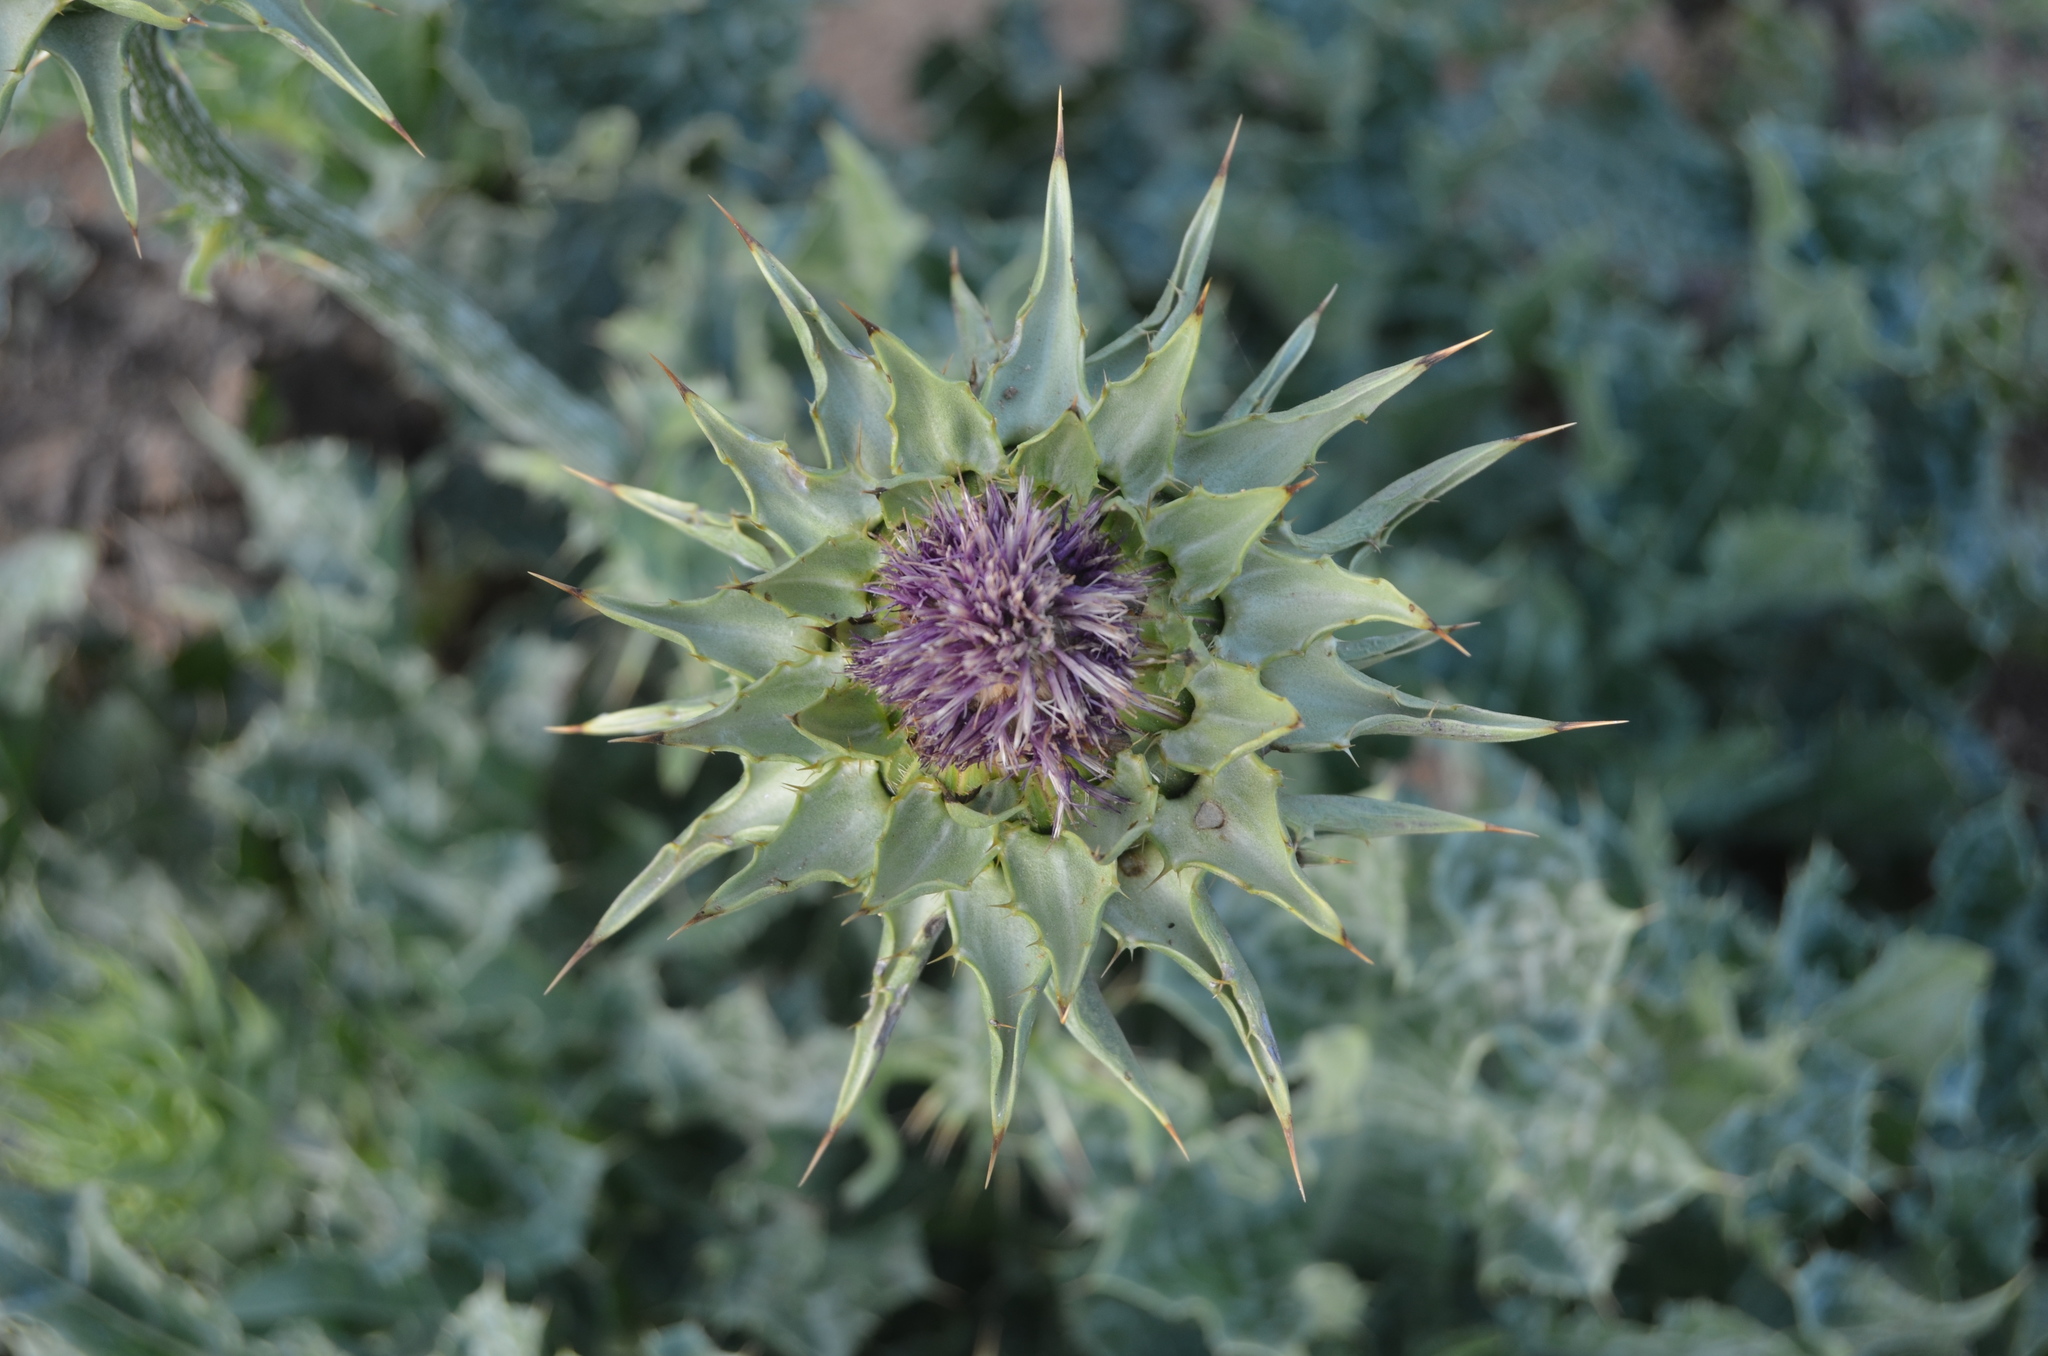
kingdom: Plantae
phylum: Tracheophyta
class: Magnoliopsida
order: Asterales
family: Asteraceae
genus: Silybum
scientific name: Silybum marianum
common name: Milk thistle
